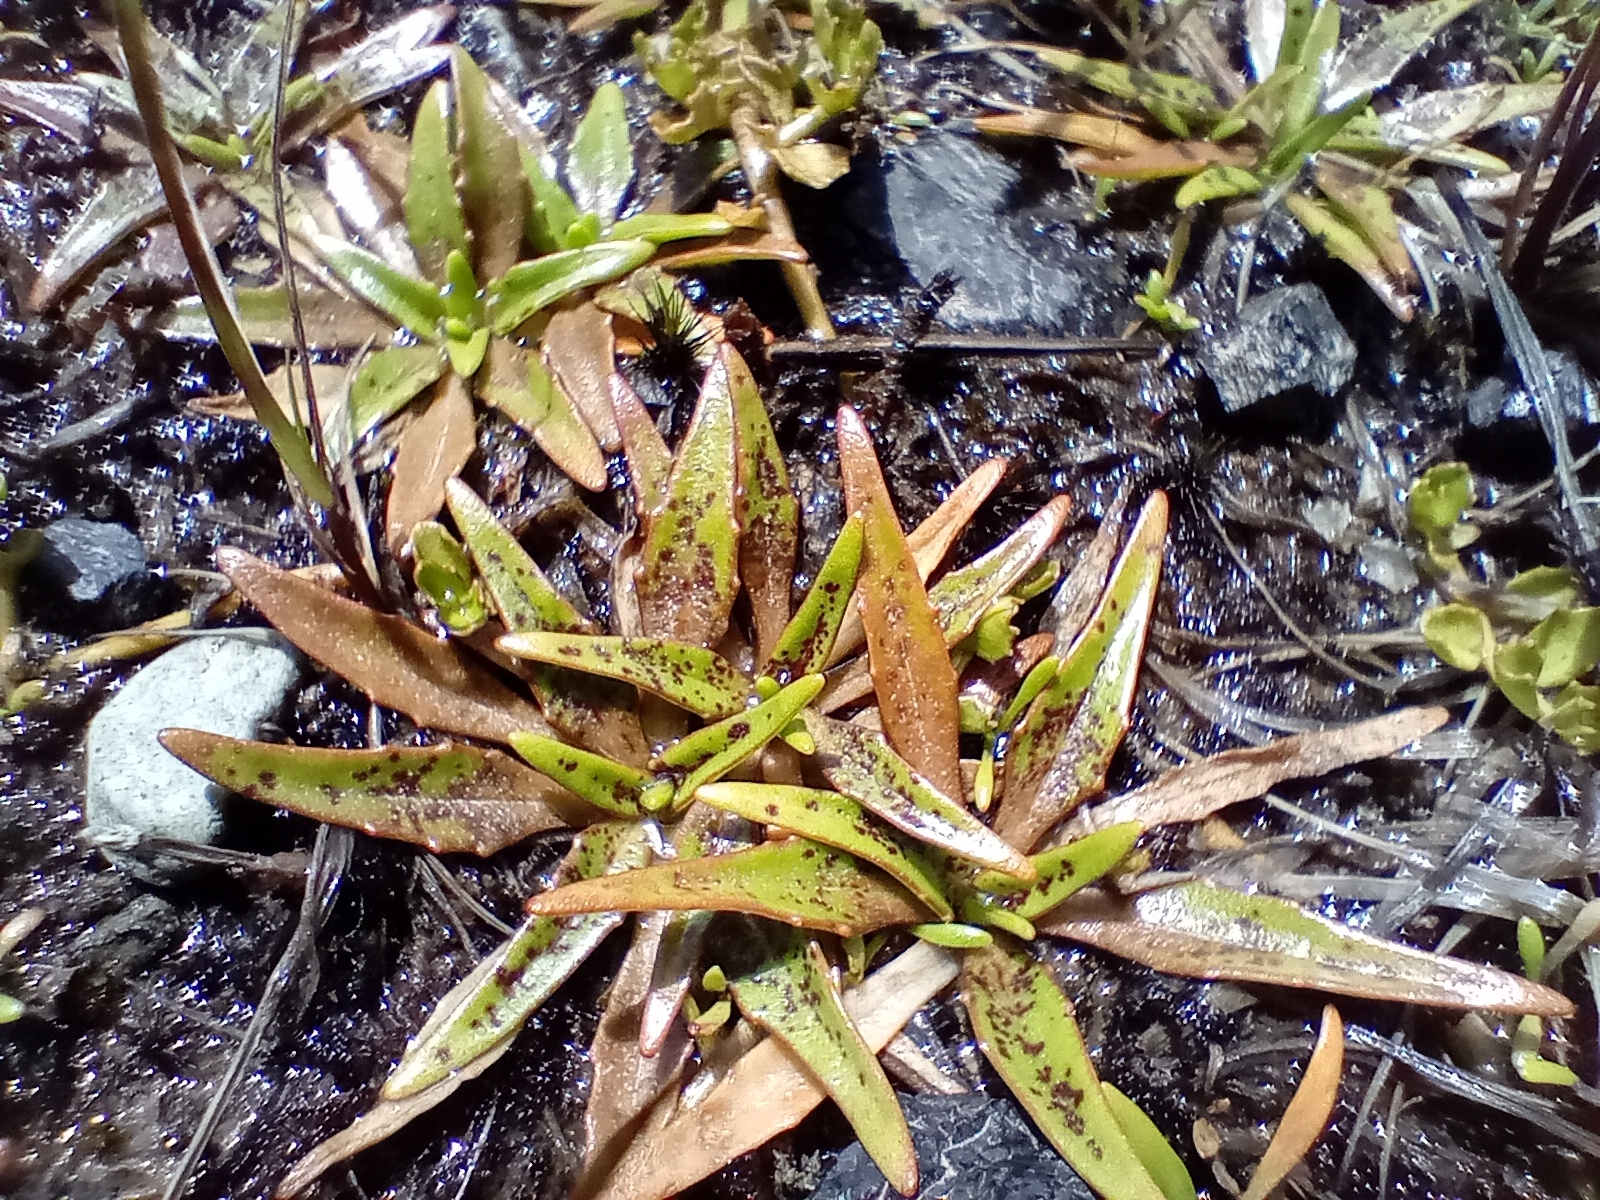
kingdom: Plantae
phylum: Tracheophyta
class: Magnoliopsida
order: Lamiales
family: Plantaginaceae
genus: Plantago
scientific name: Plantago triandra
